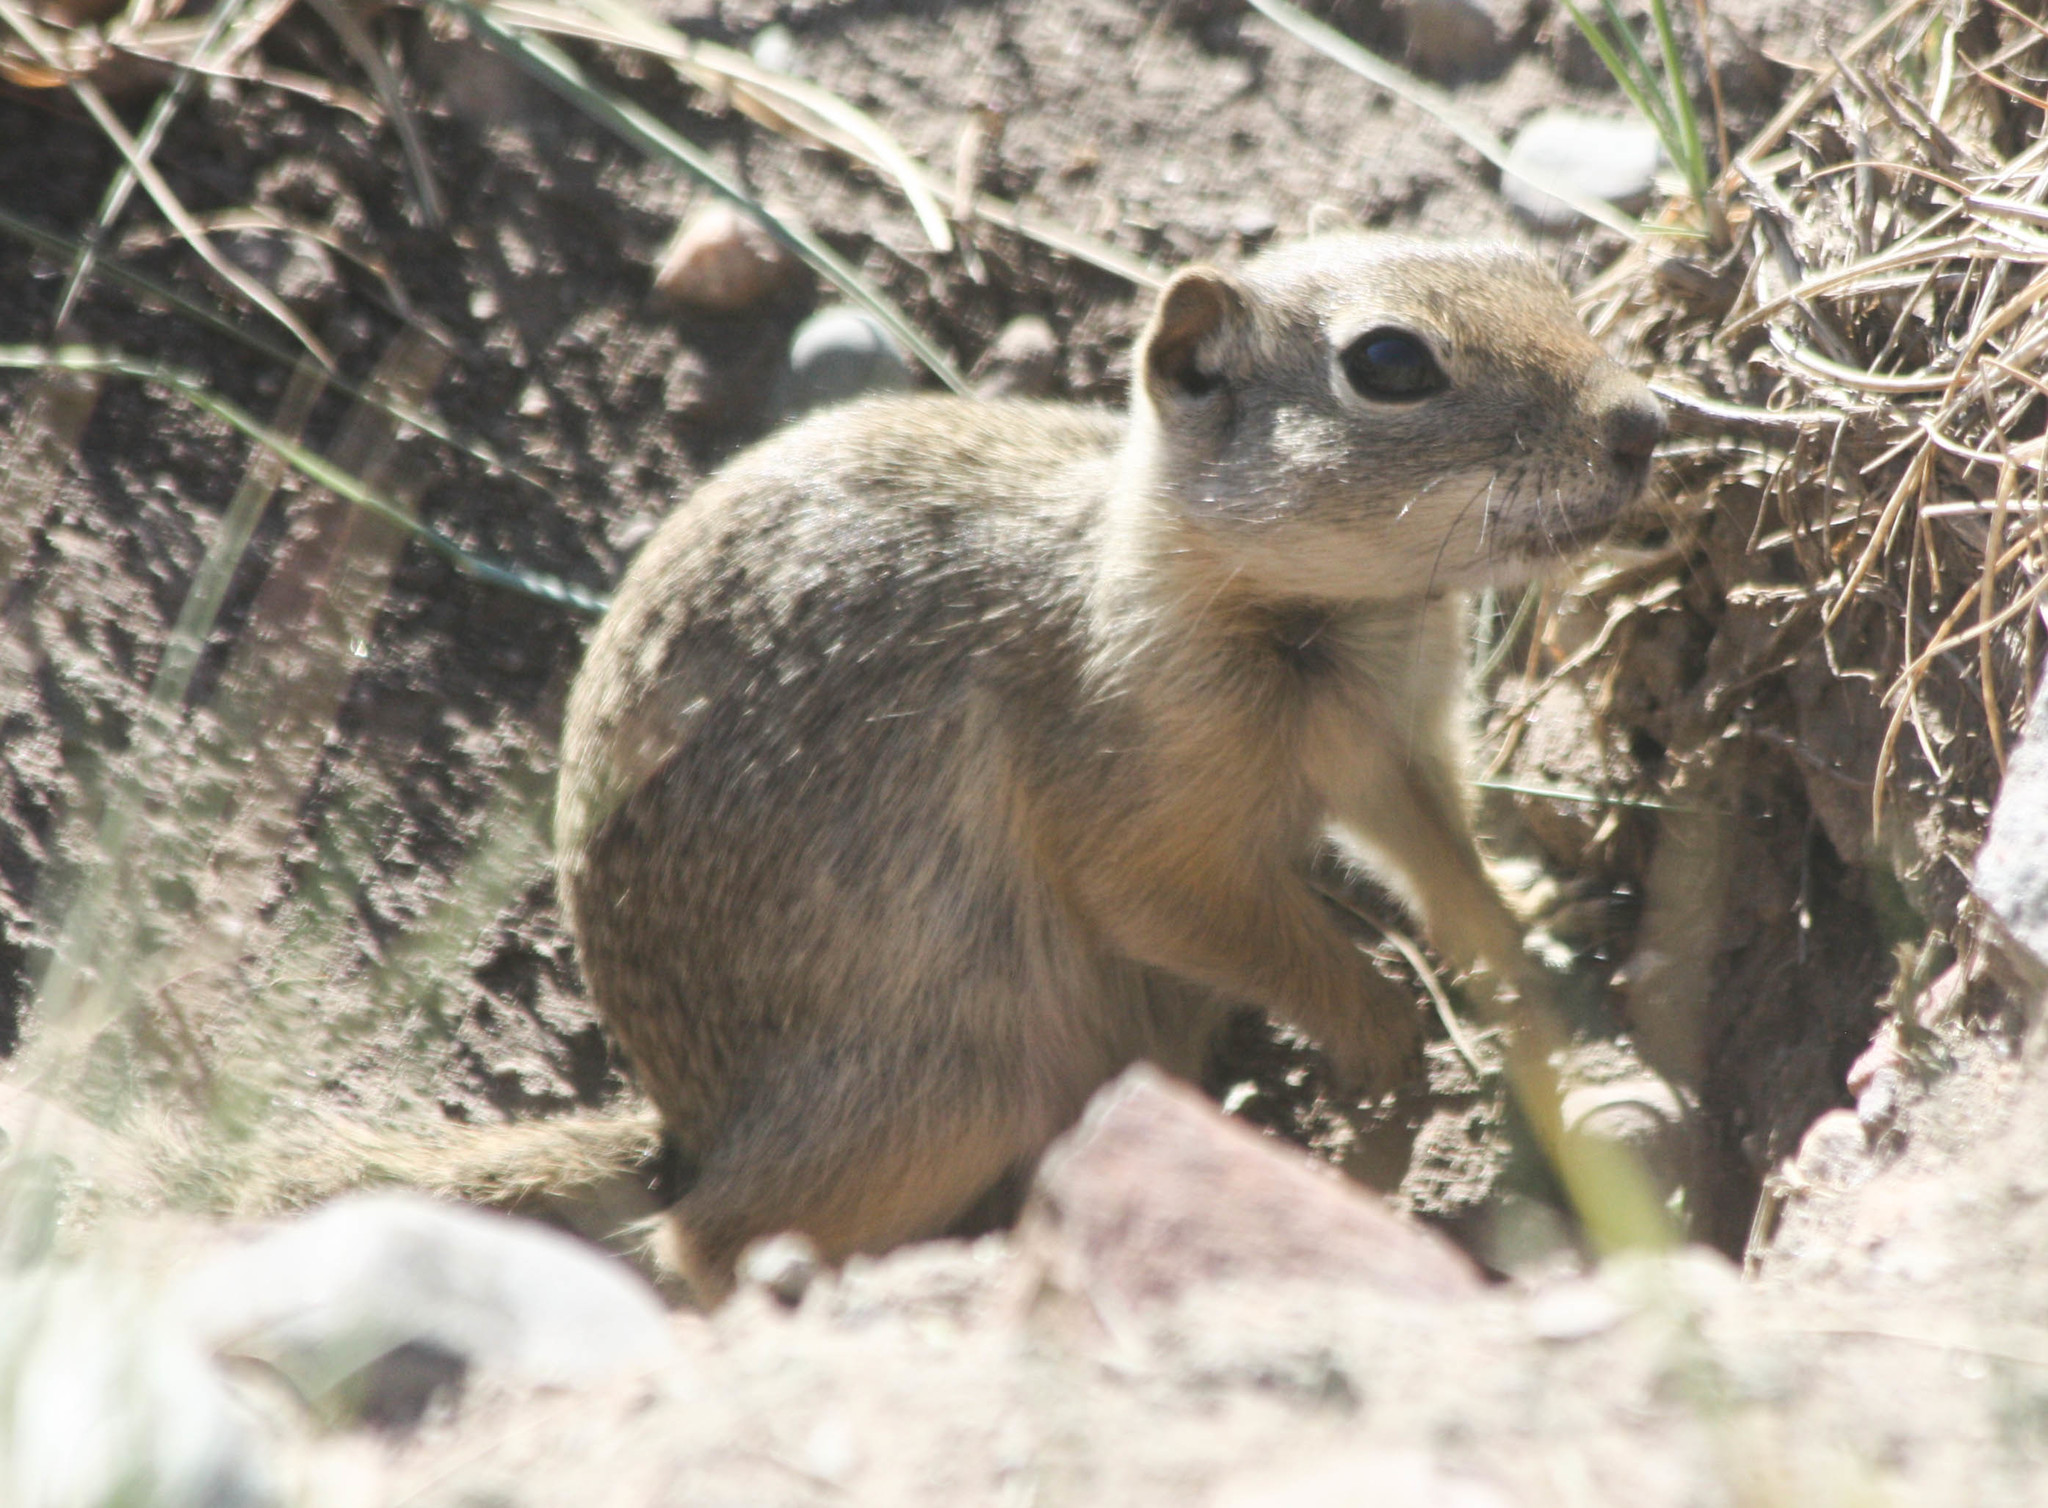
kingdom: Animalia
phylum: Chordata
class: Mammalia
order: Rodentia
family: Sciuridae
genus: Urocitellus
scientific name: Urocitellus elegans
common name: Wyoming ground squirrel
